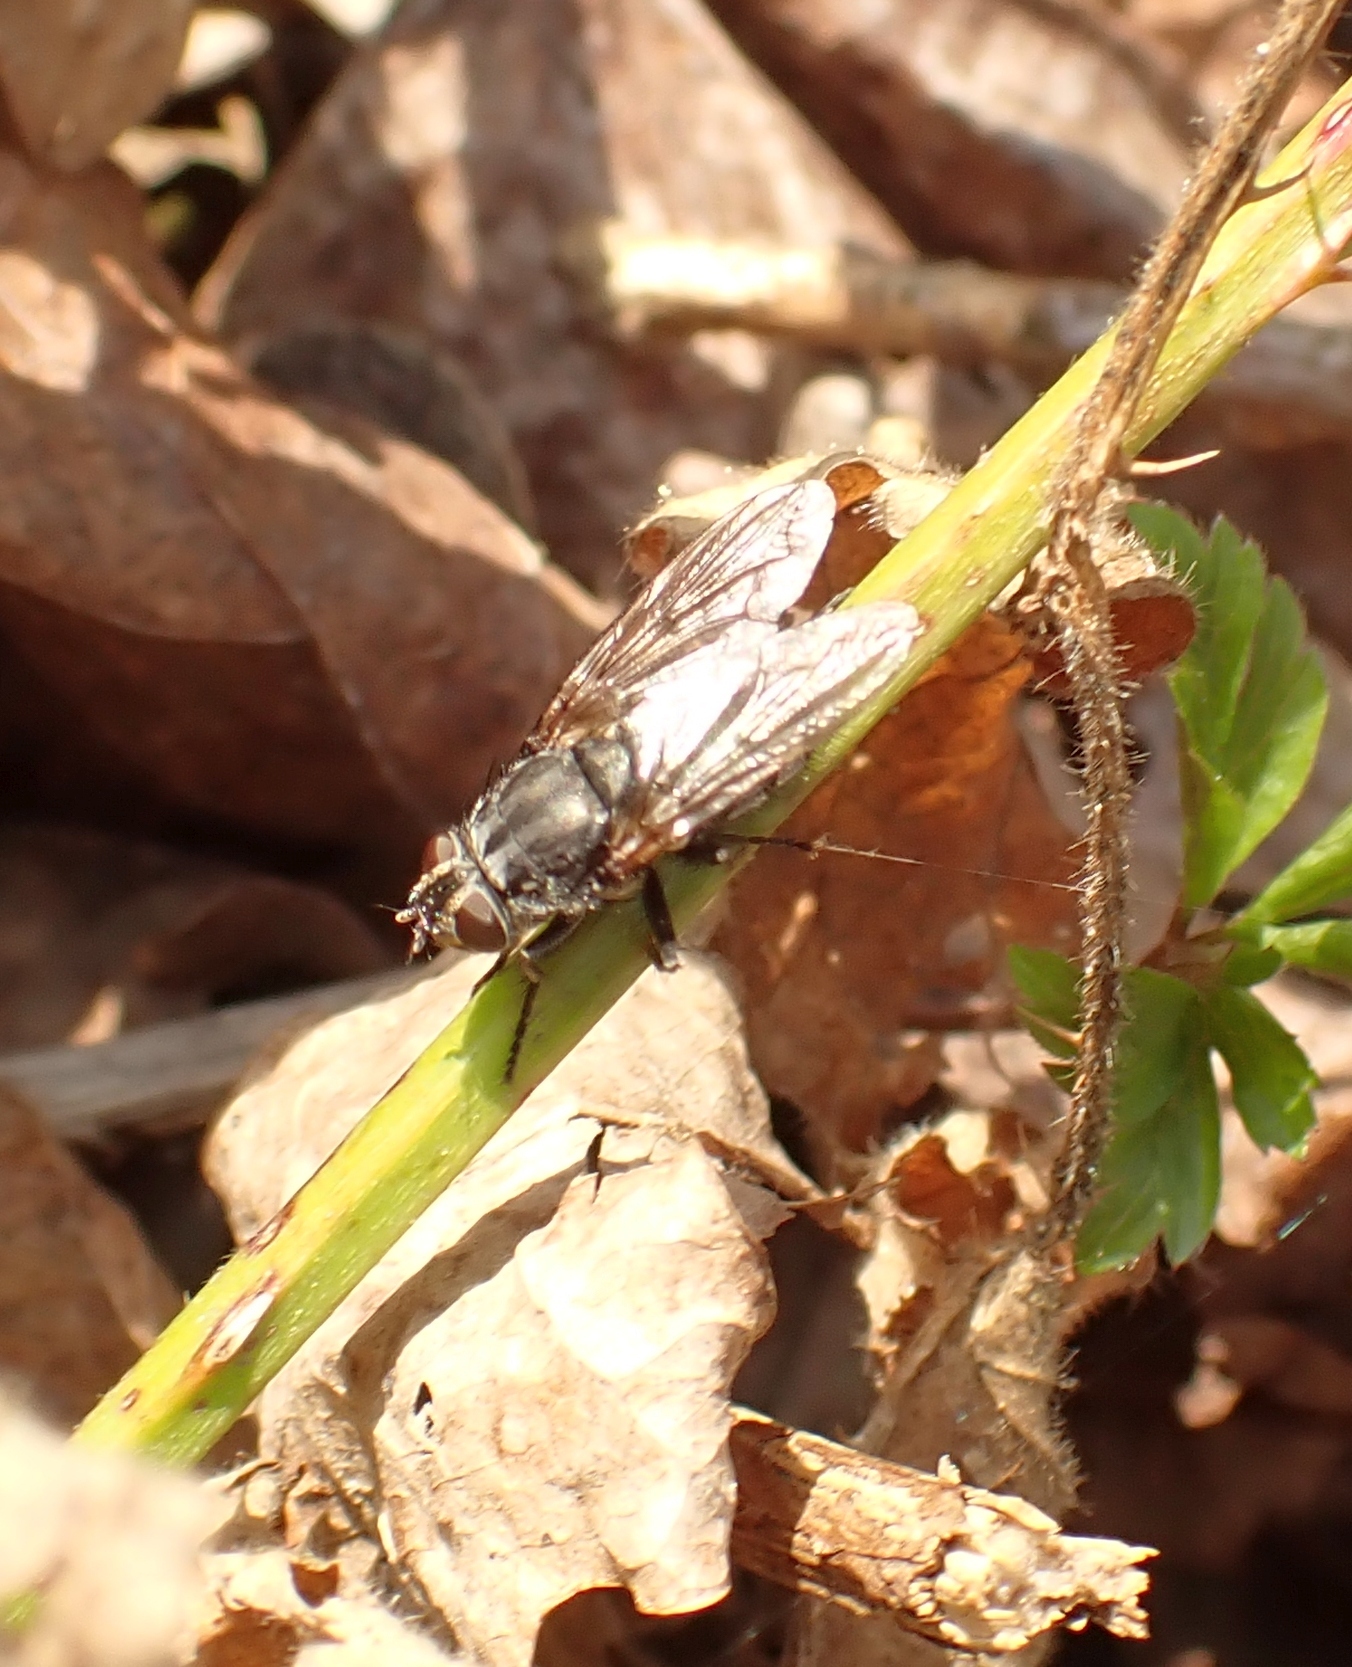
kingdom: Animalia
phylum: Arthropoda
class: Insecta
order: Diptera
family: Polleniidae
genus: Pollenia
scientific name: Pollenia vagabunda
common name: Vagabund cluster fly
